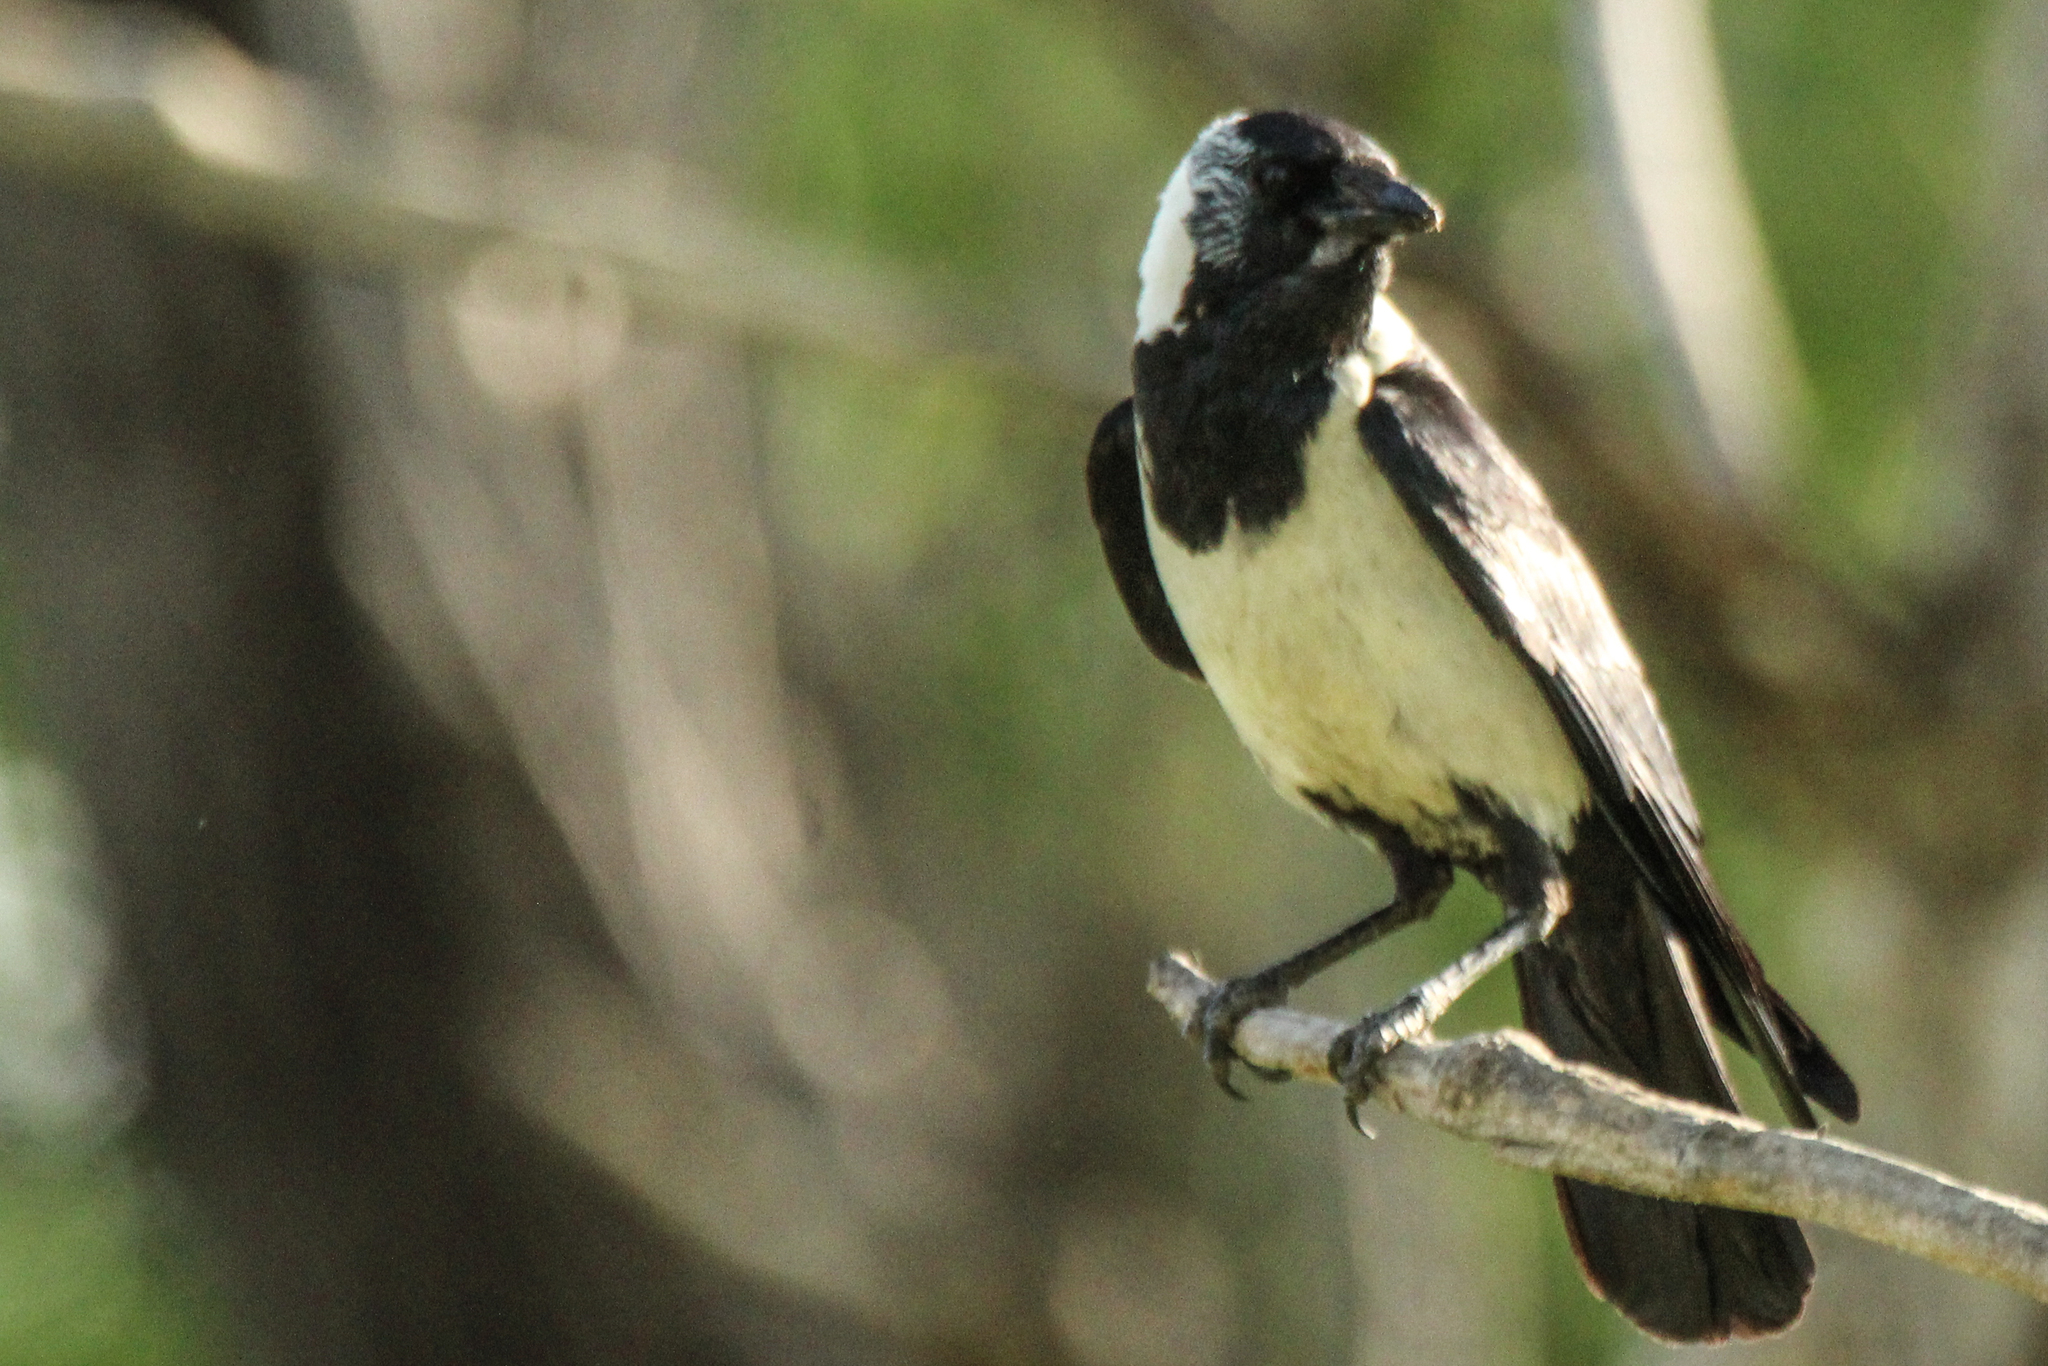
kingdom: Animalia
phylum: Chordata
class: Aves
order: Passeriformes
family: Corvidae
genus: Coloeus
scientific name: Coloeus dauuricus
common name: Daurian jackdaw
